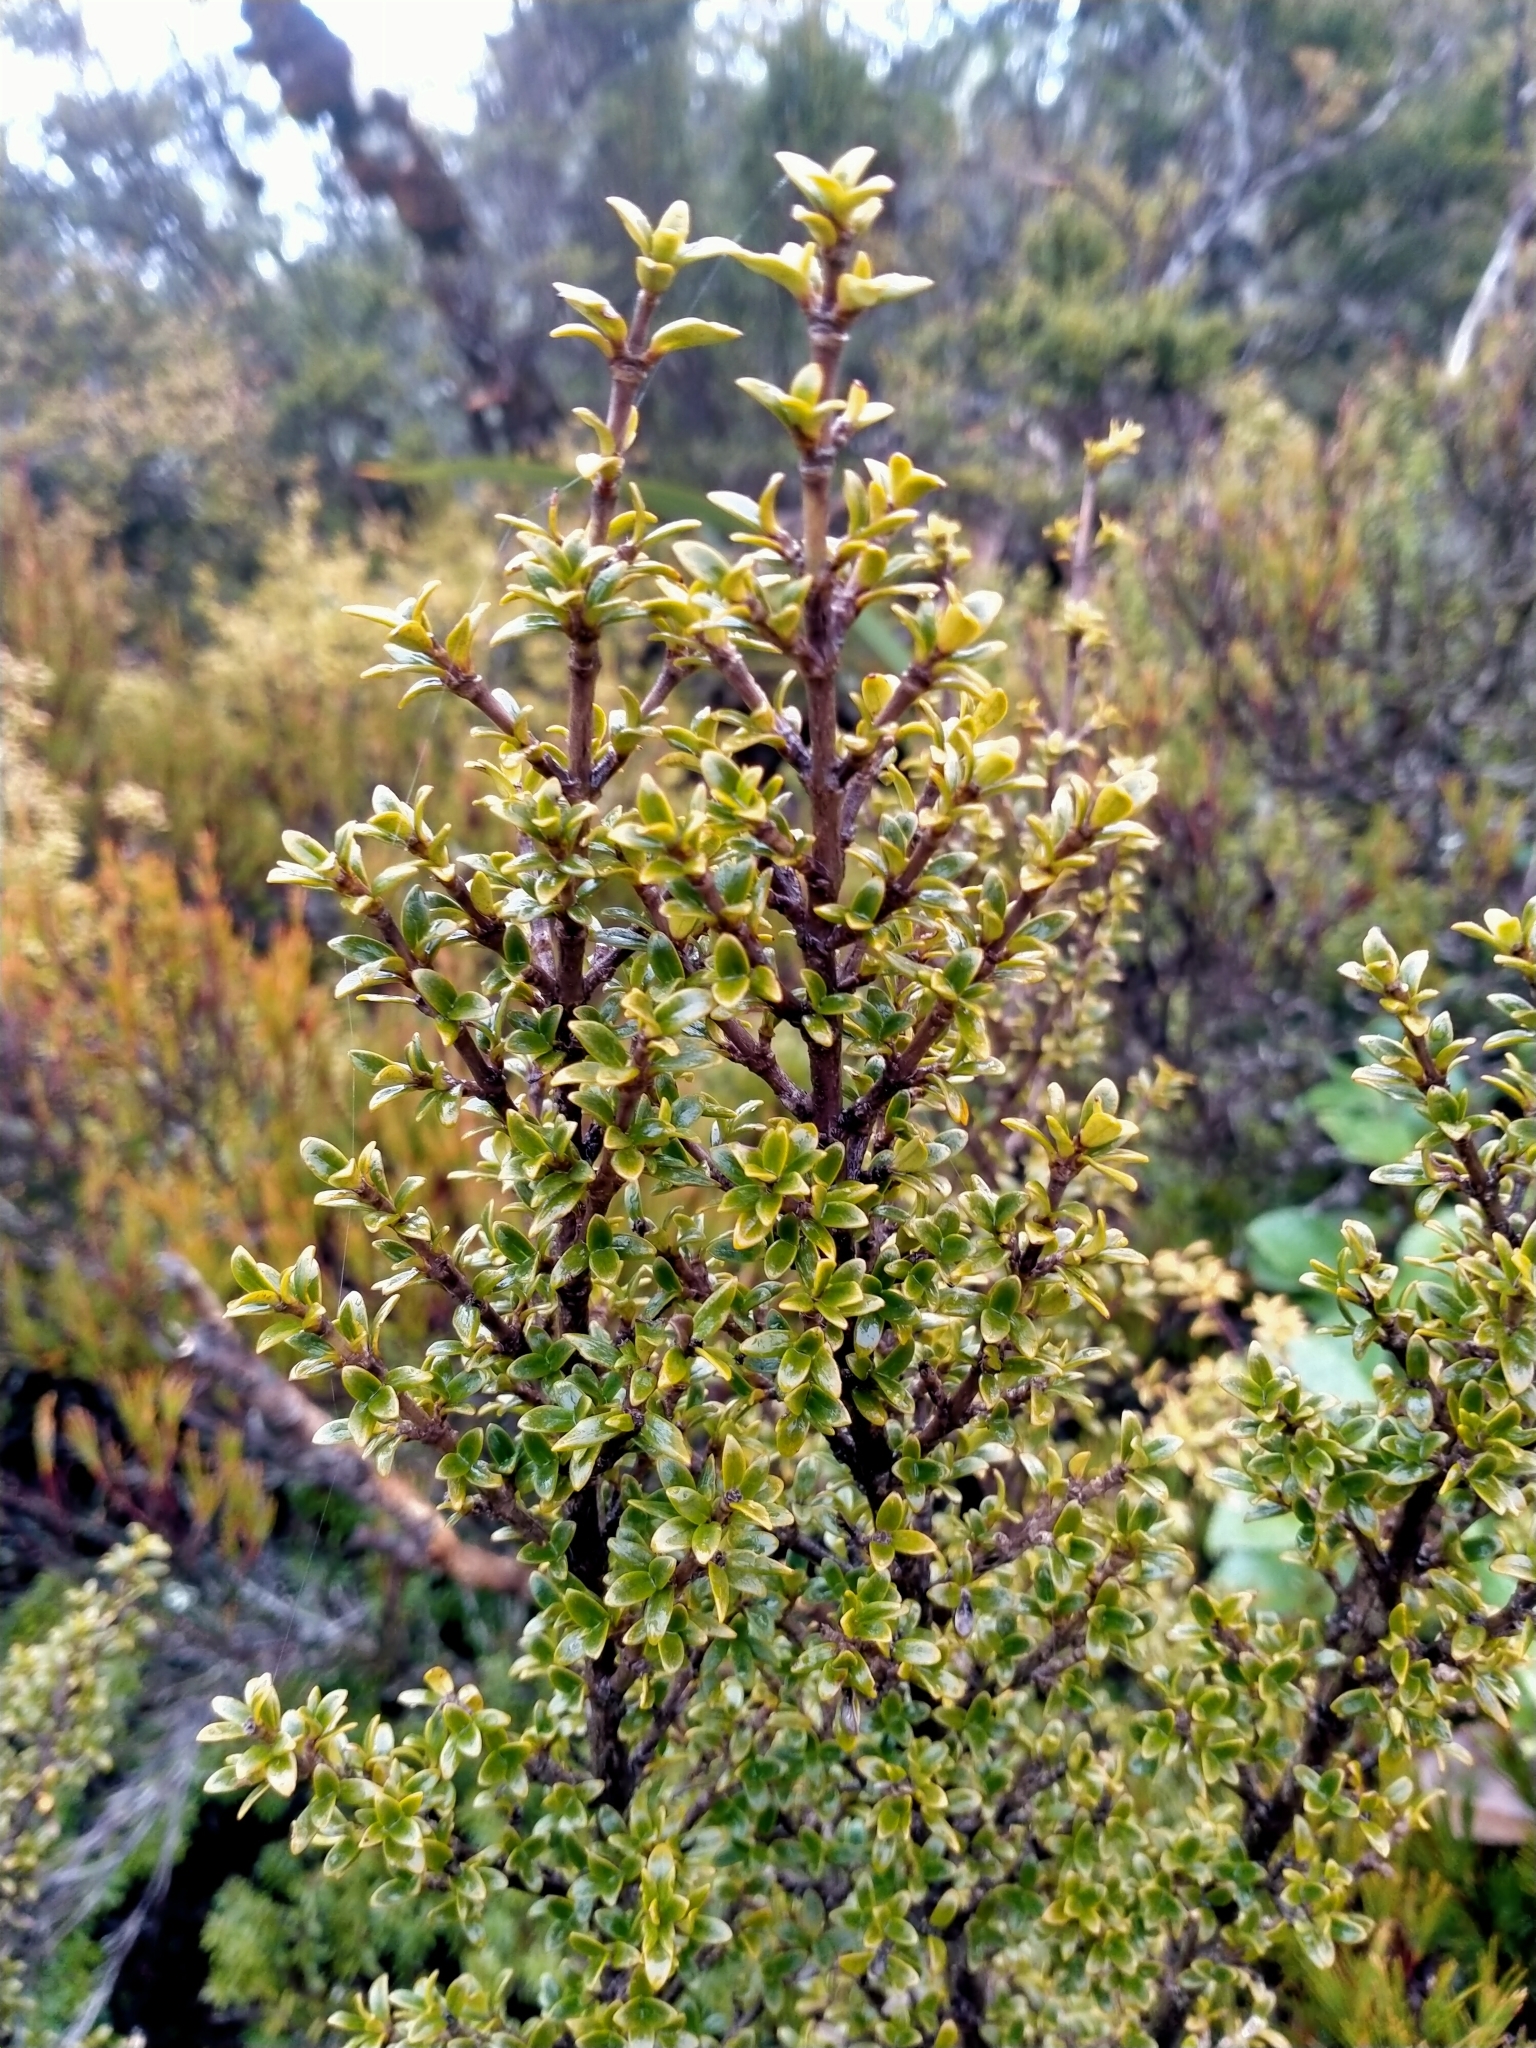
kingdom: Plantae
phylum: Tracheophyta
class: Magnoliopsida
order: Gentianales
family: Rubiaceae
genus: Coprosma
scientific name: Coprosma pseudocuneata
